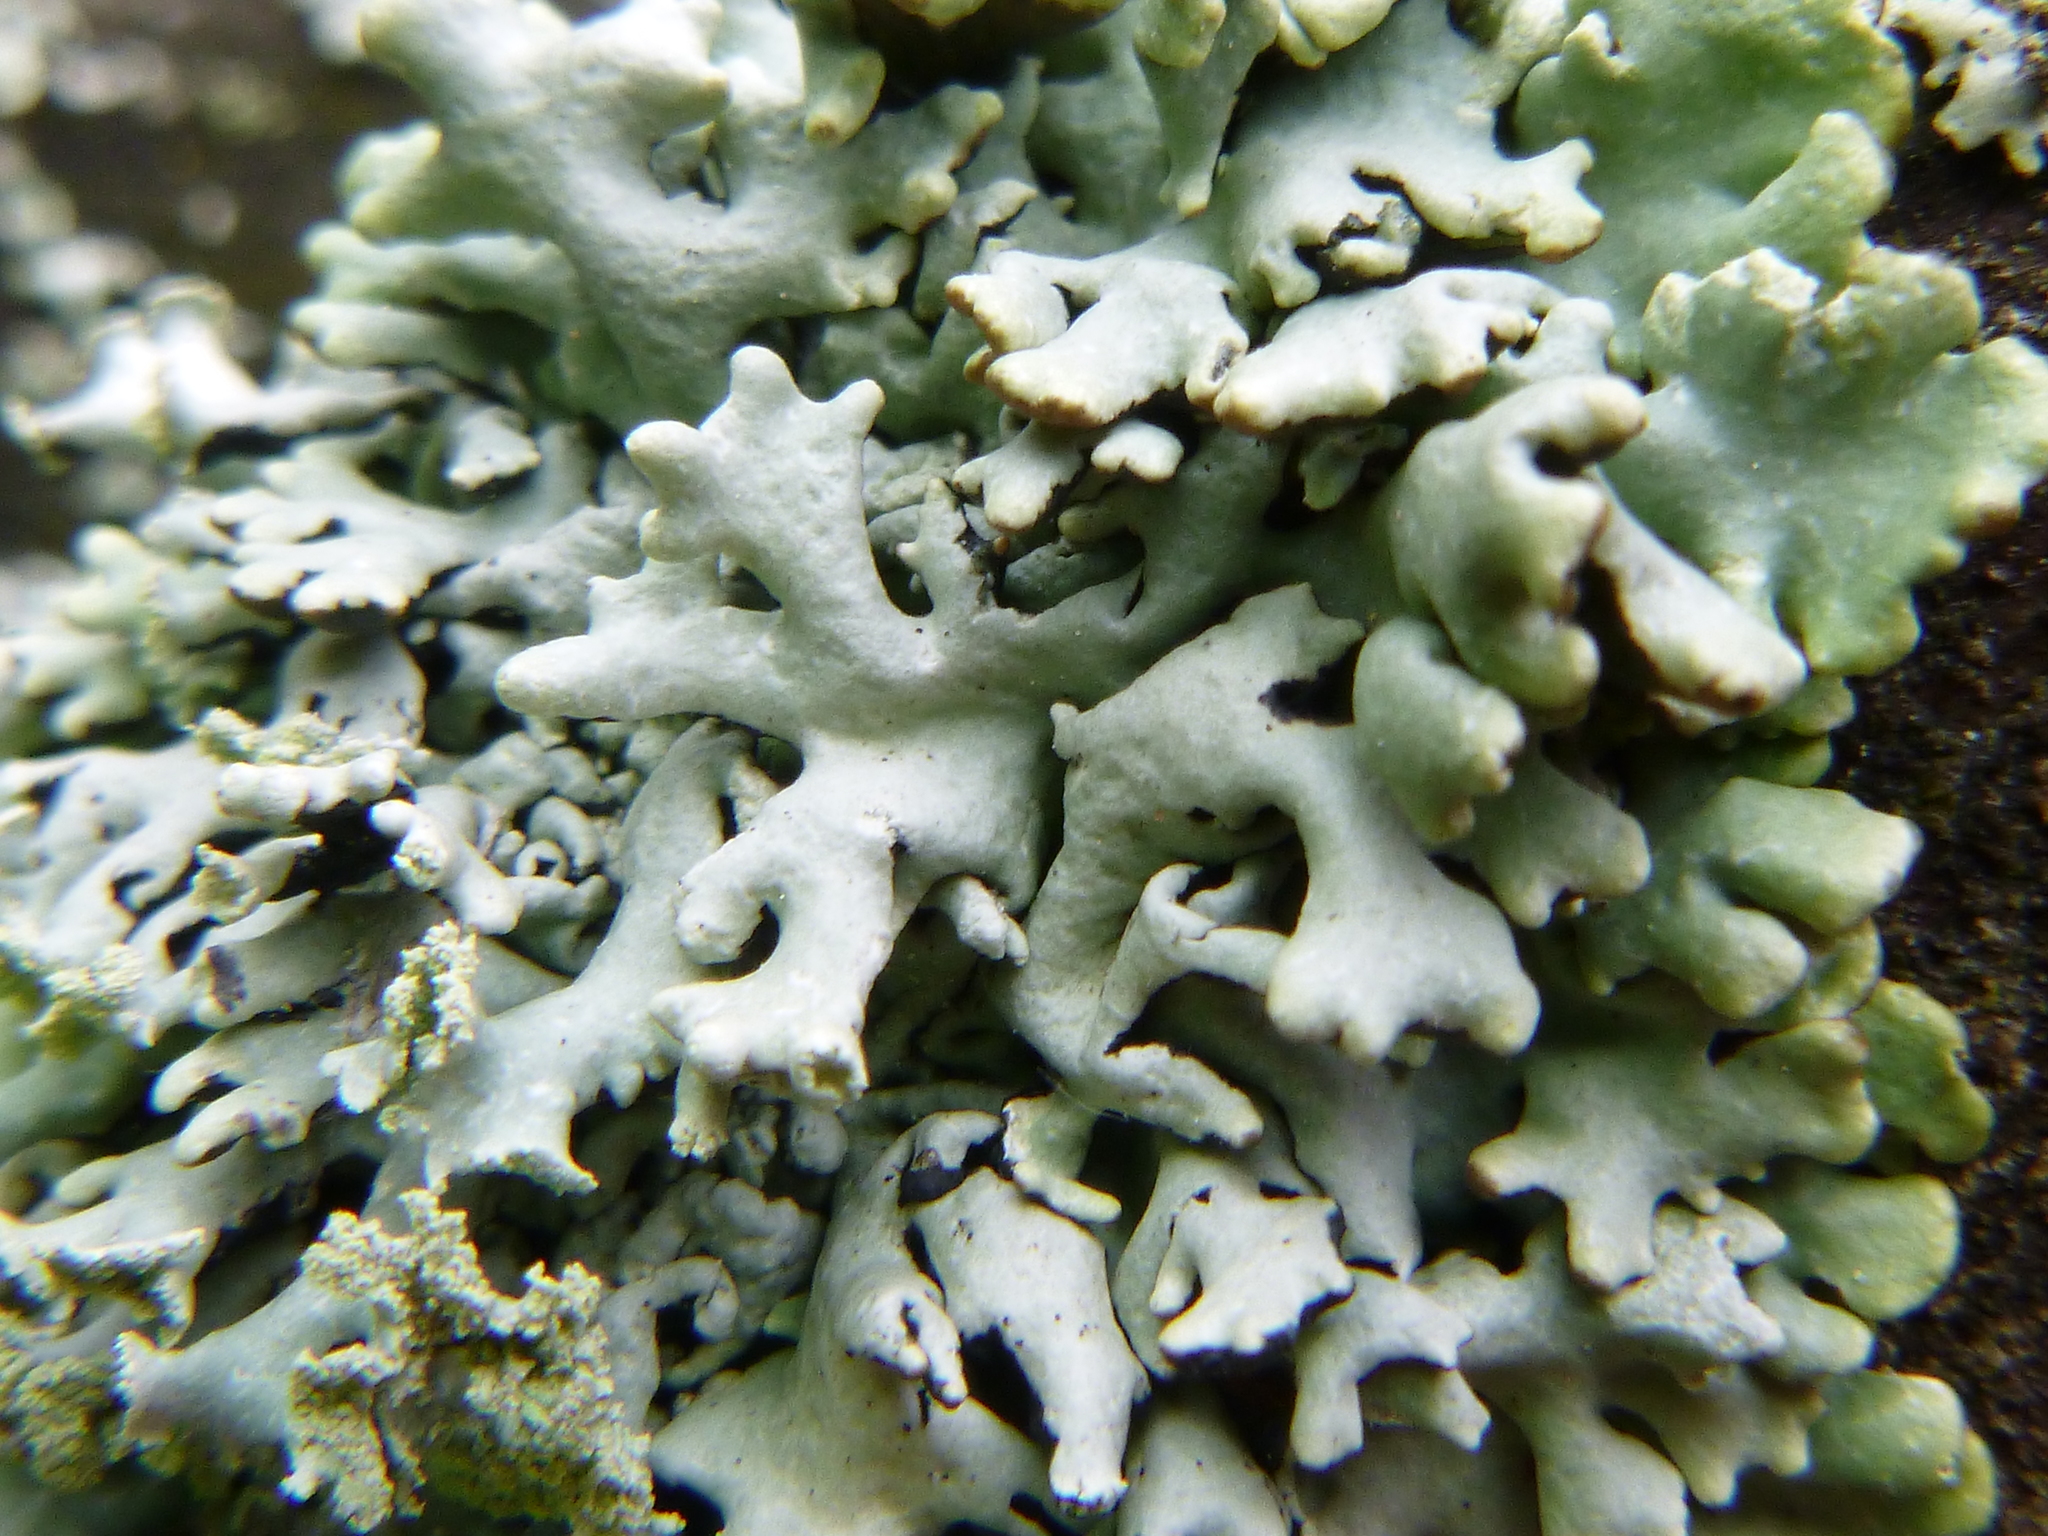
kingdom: Fungi
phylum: Ascomycota
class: Lecanoromycetes
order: Lecanorales
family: Parmeliaceae
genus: Hypogymnia
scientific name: Hypogymnia physodes
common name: Dark crottle
